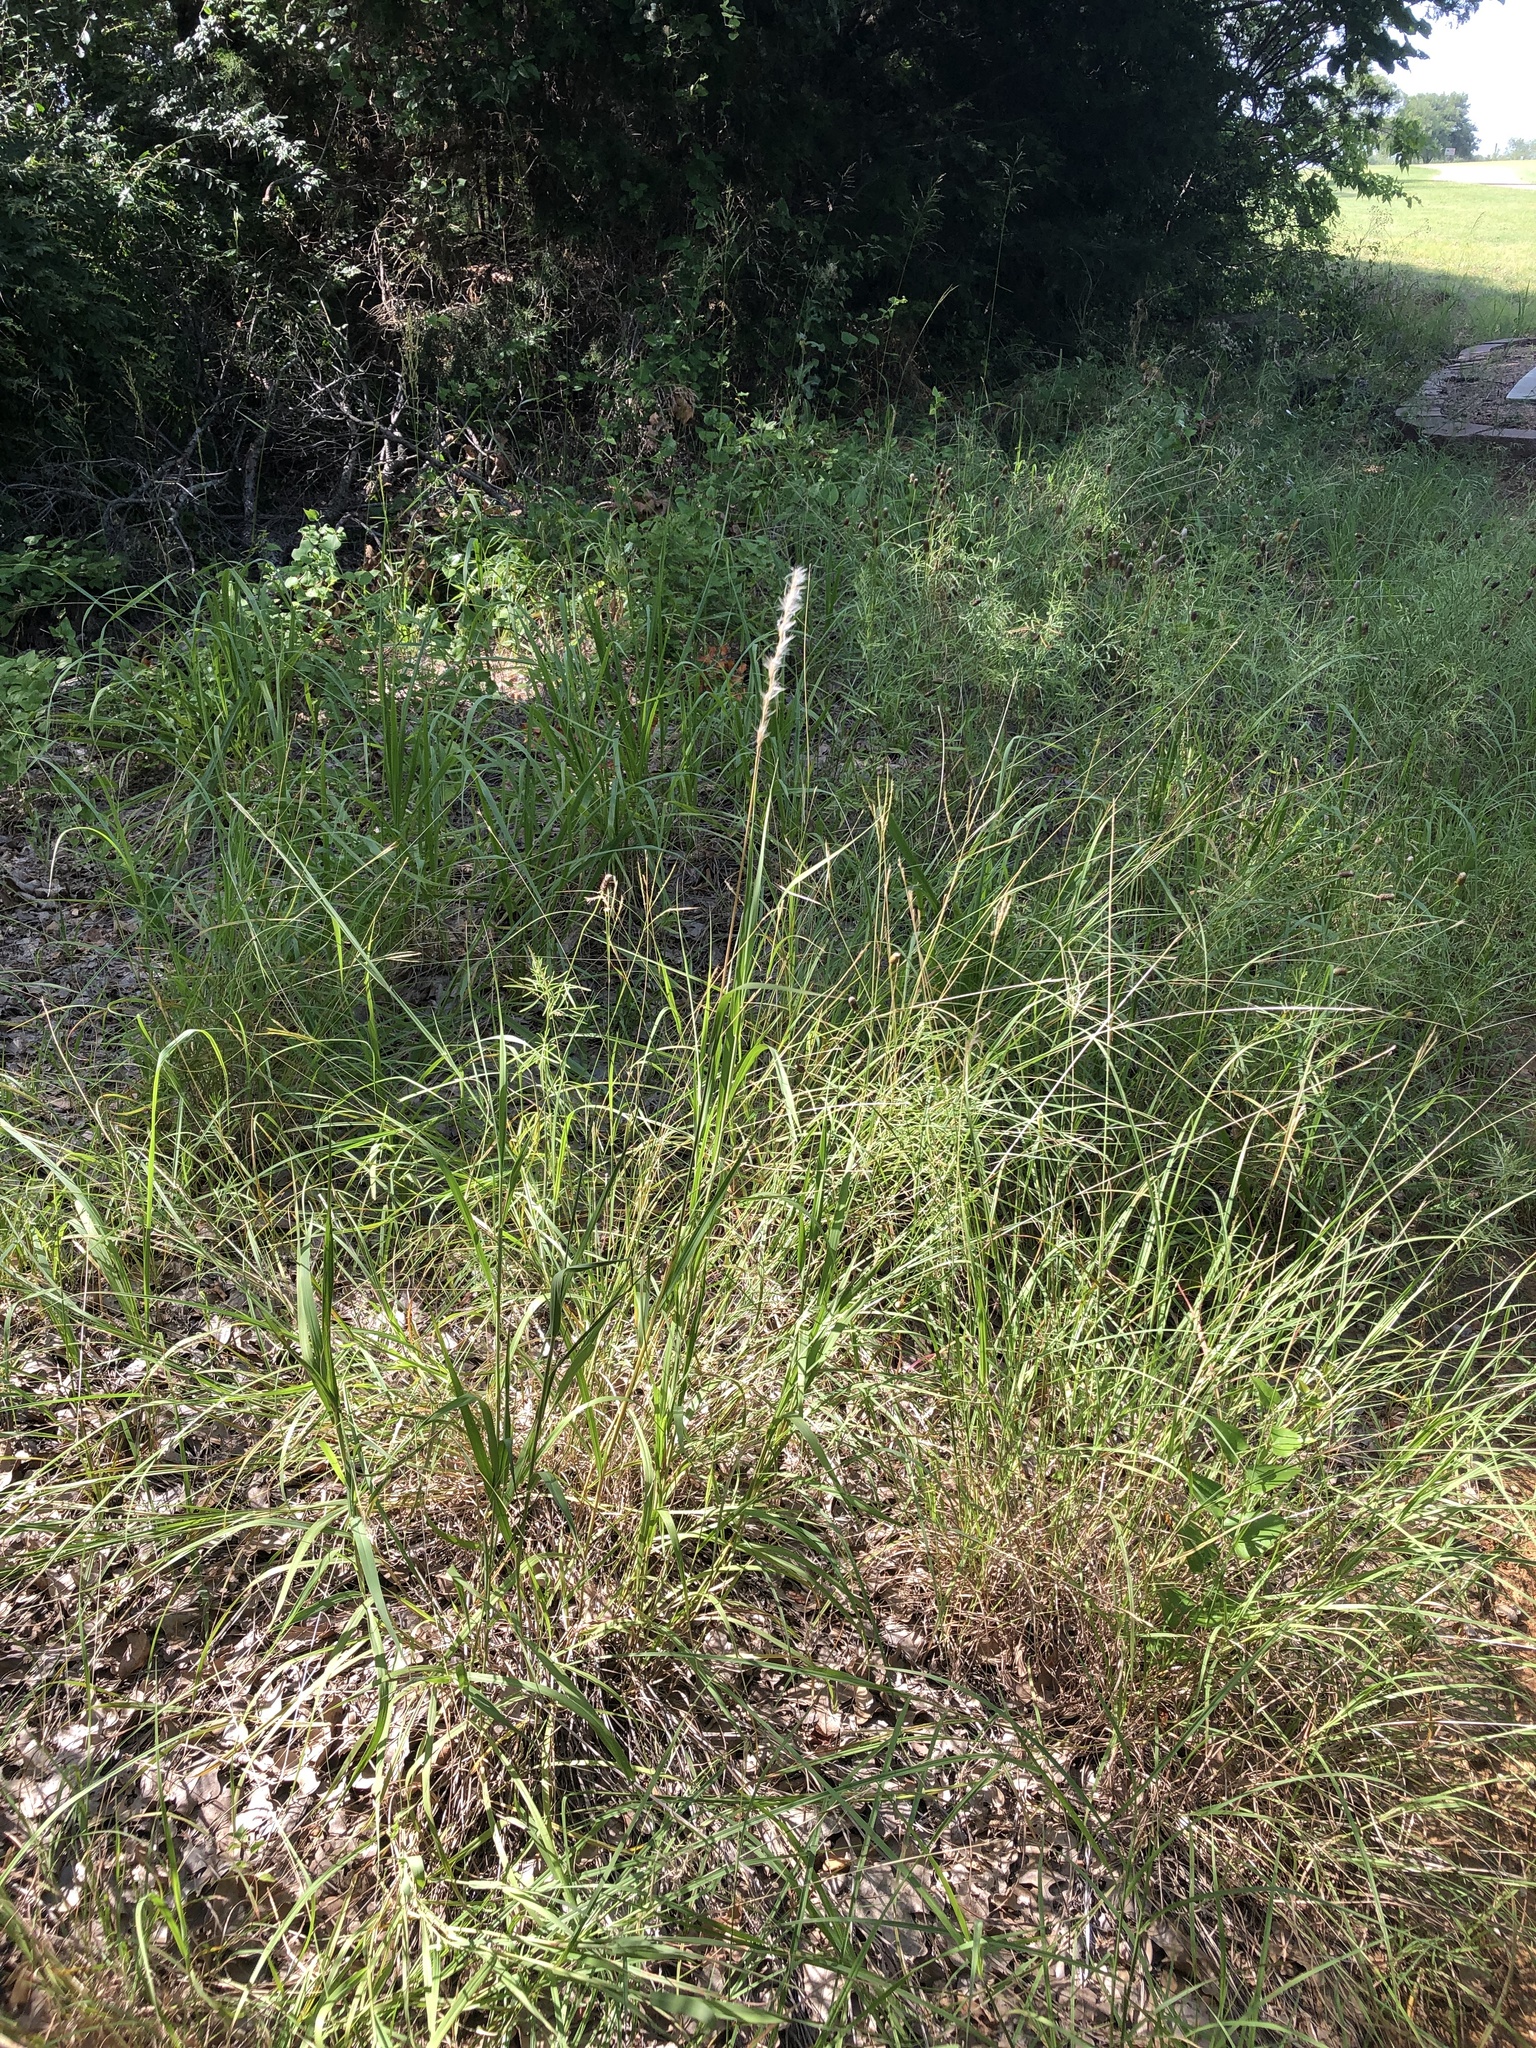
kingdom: Plantae
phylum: Tracheophyta
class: Liliopsida
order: Poales
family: Poaceae
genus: Bothriochloa
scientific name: Bothriochloa torreyana
